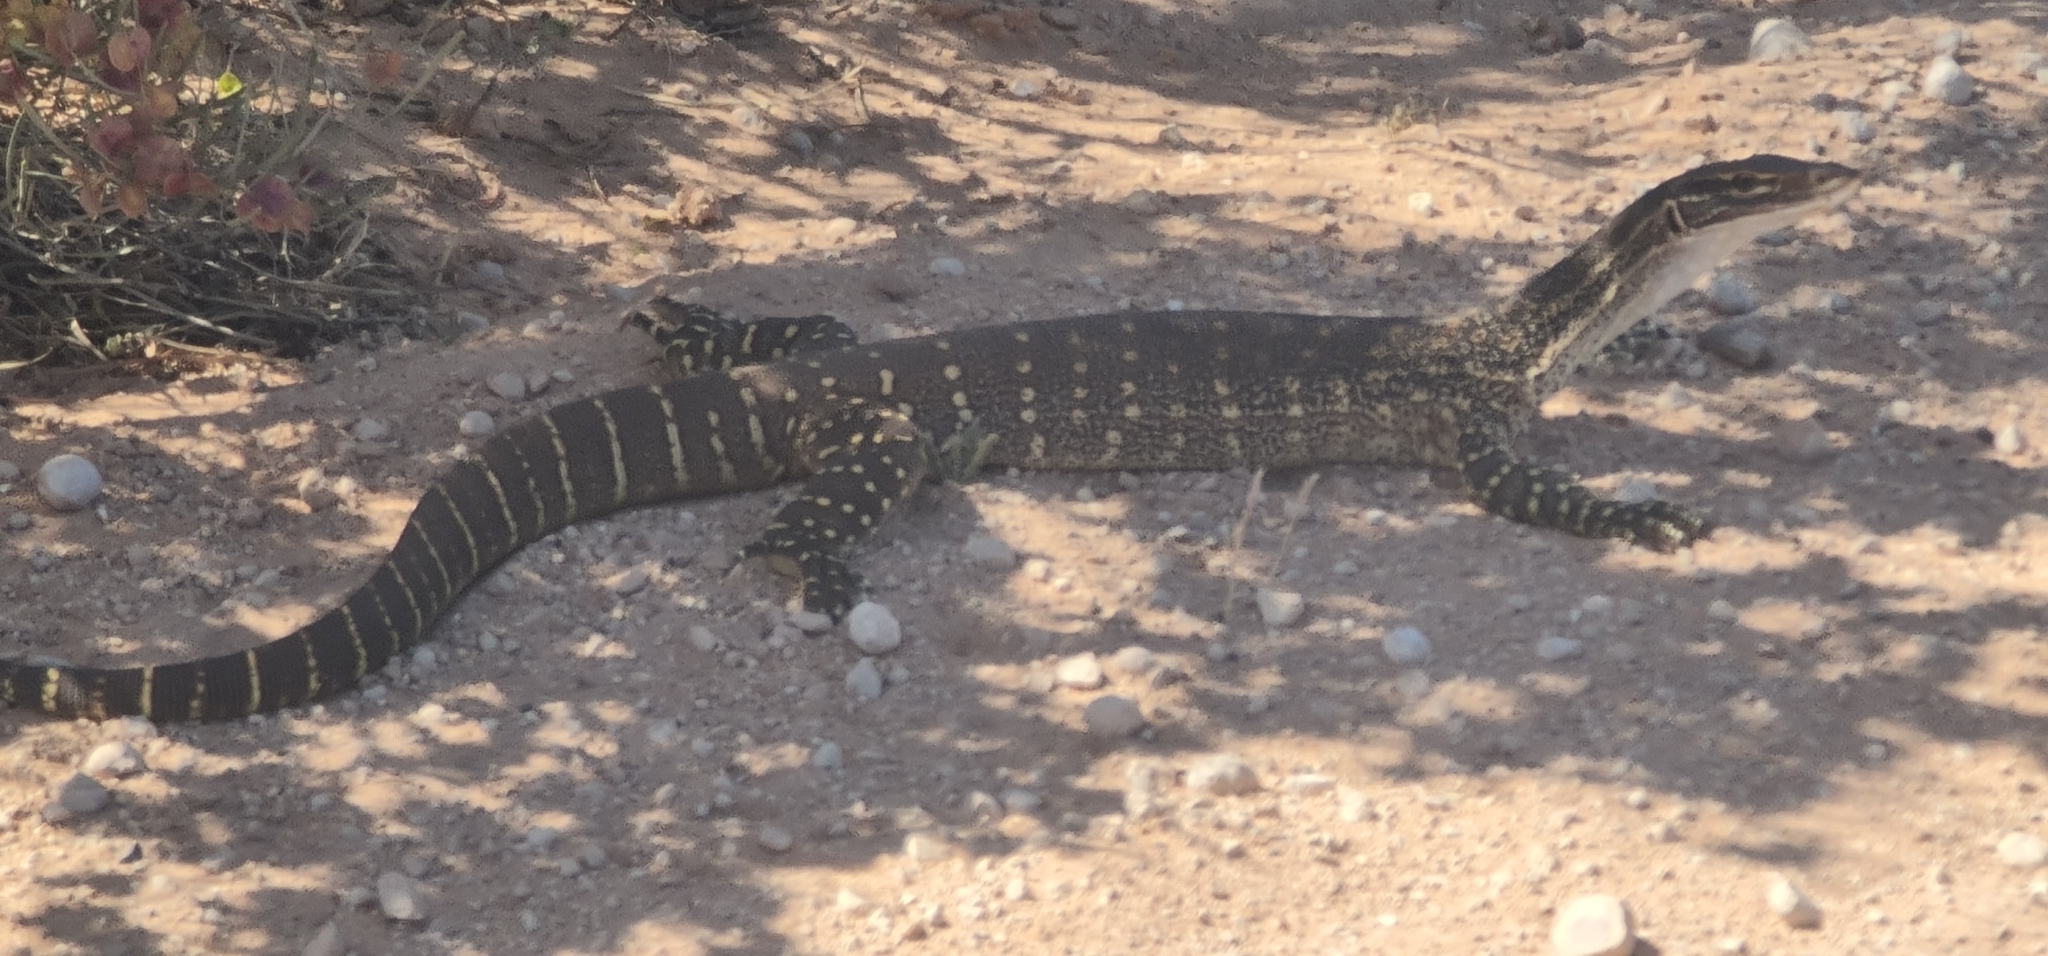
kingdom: Animalia
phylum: Chordata
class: Squamata
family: Varanidae
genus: Varanus
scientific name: Varanus gouldii
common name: Gould's goanna
